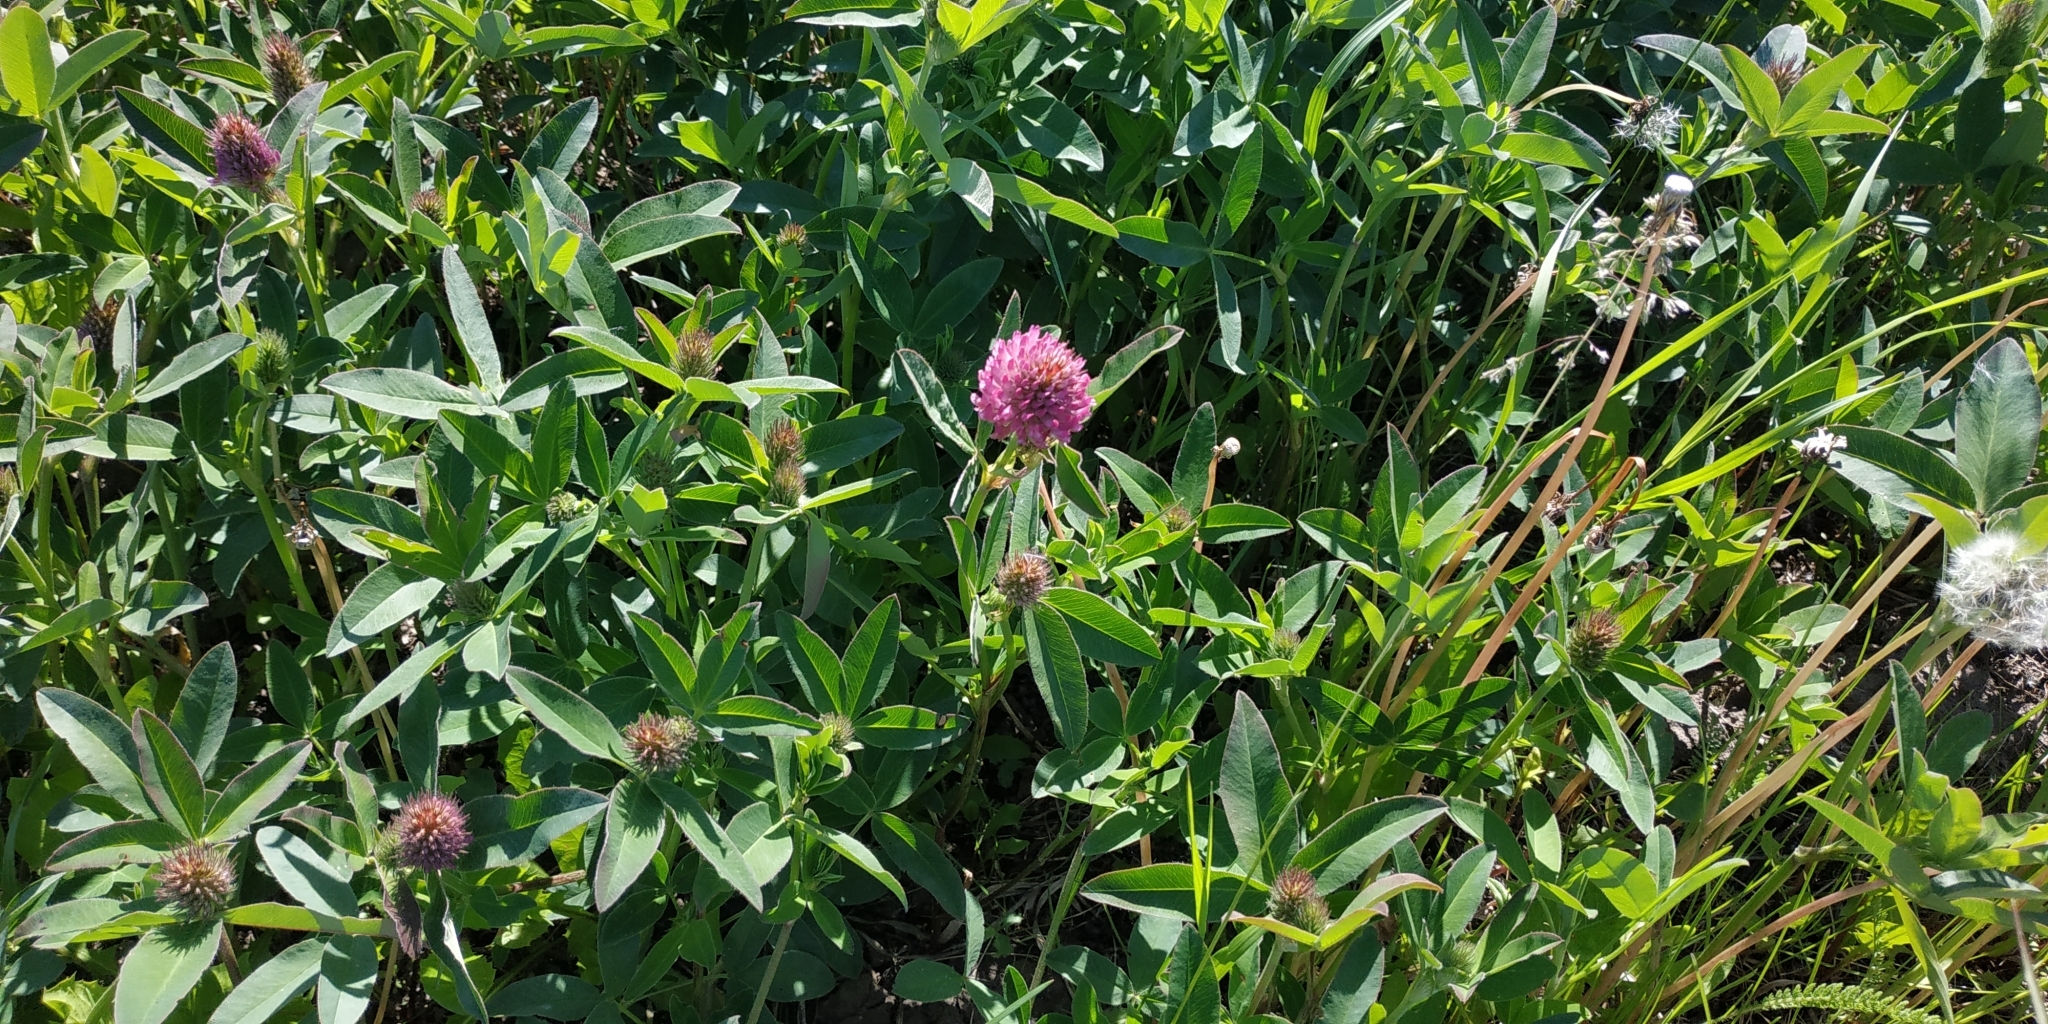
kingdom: Plantae
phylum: Tracheophyta
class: Magnoliopsida
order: Fabales
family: Fabaceae
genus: Trifolium
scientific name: Trifolium medium
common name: Zigzag clover
